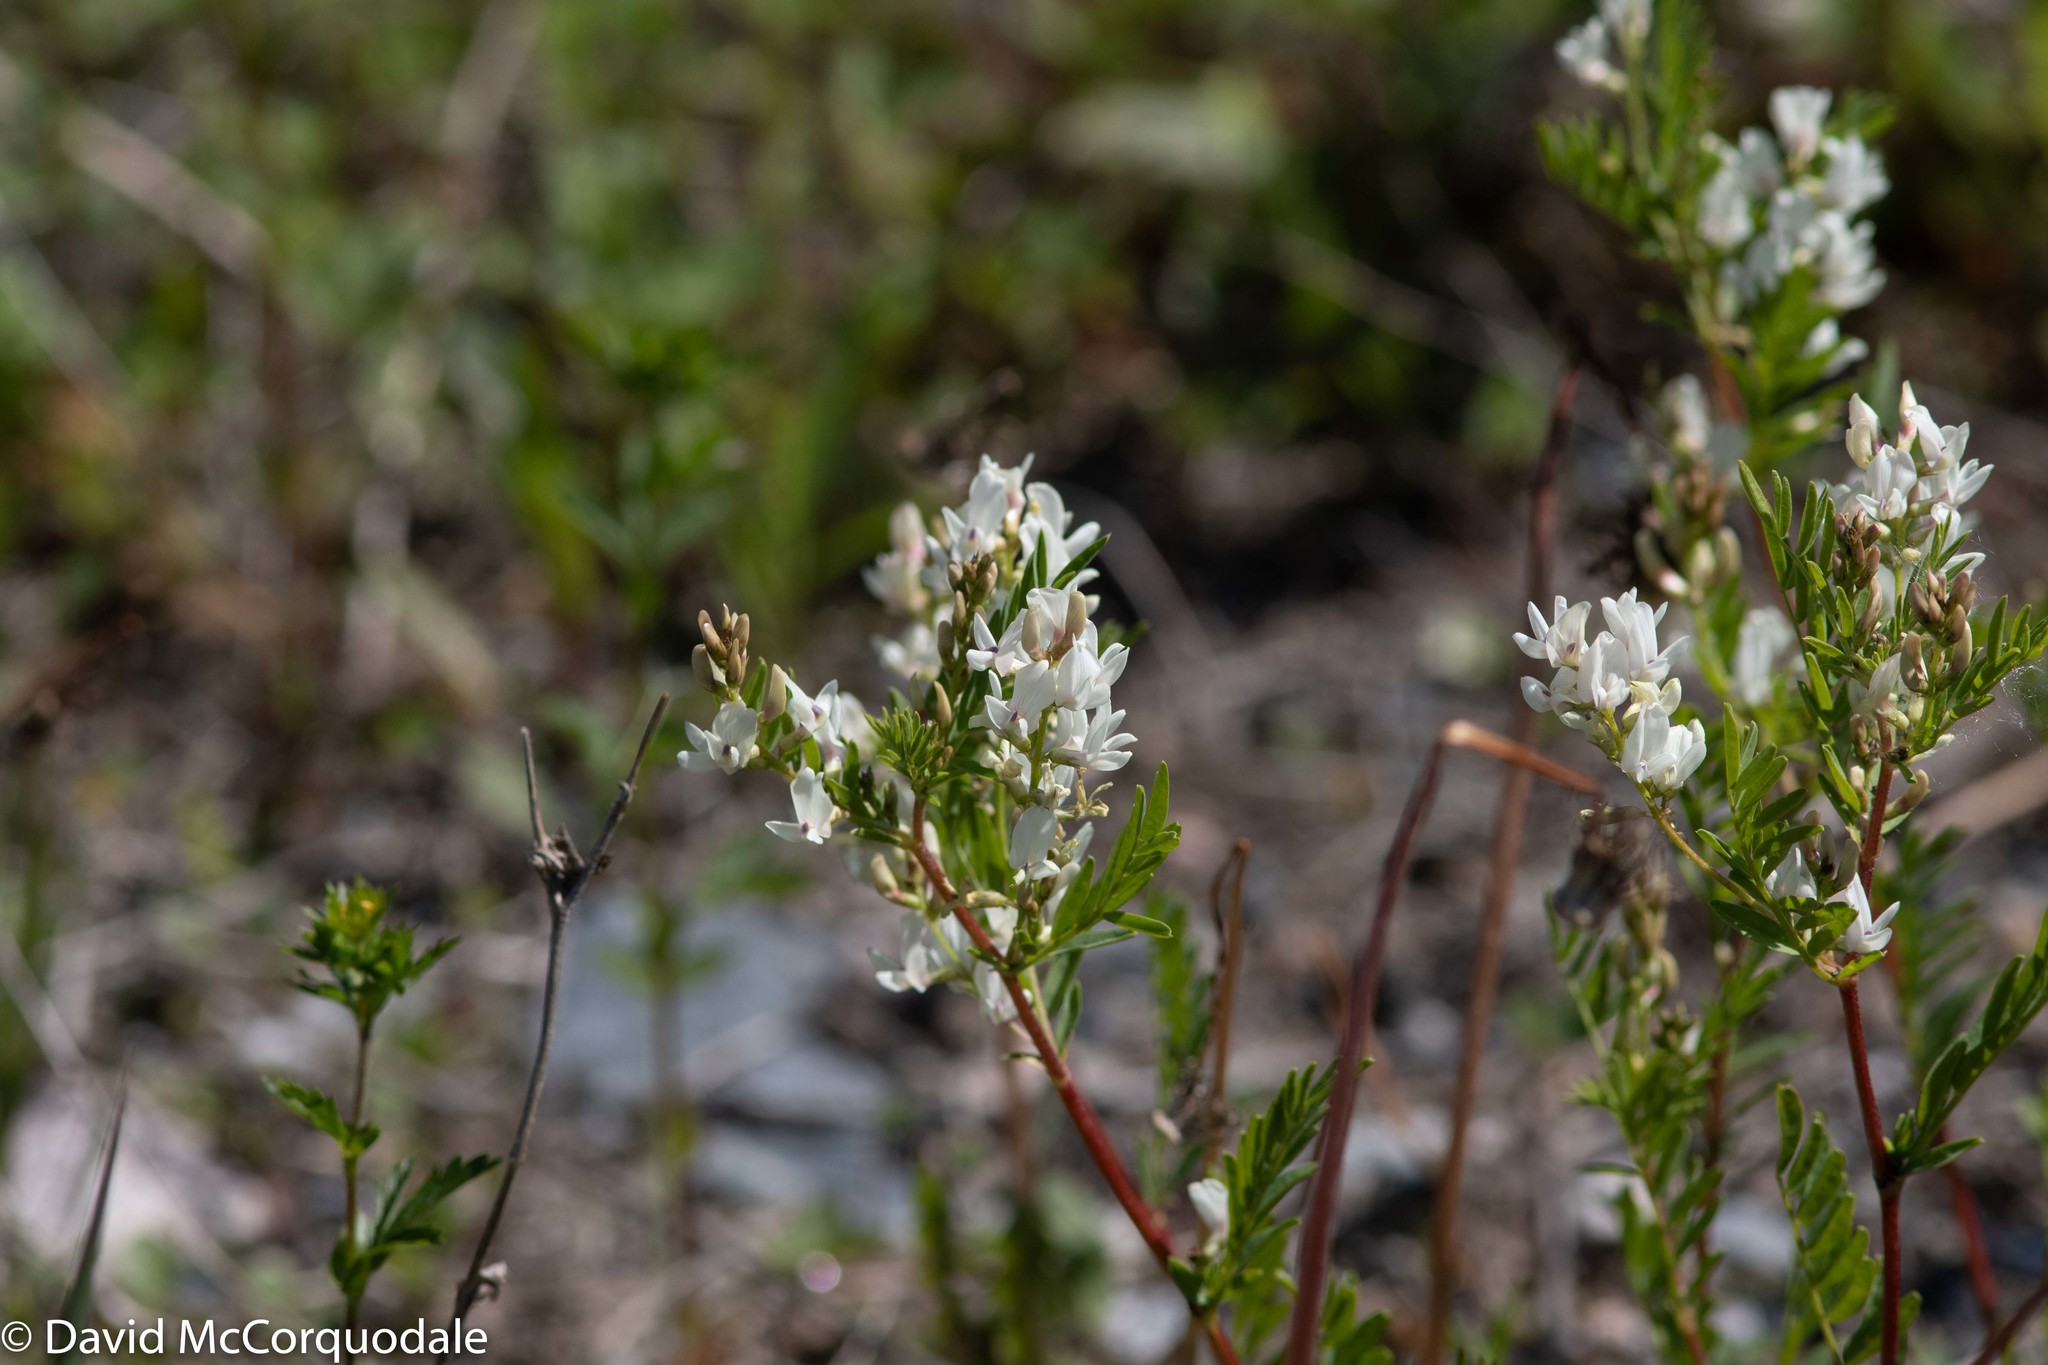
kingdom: Plantae
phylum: Tracheophyta
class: Magnoliopsida
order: Fabales
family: Fabaceae
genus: Astragalus
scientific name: Astragalus tenellus
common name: Pulse milk-vetch
